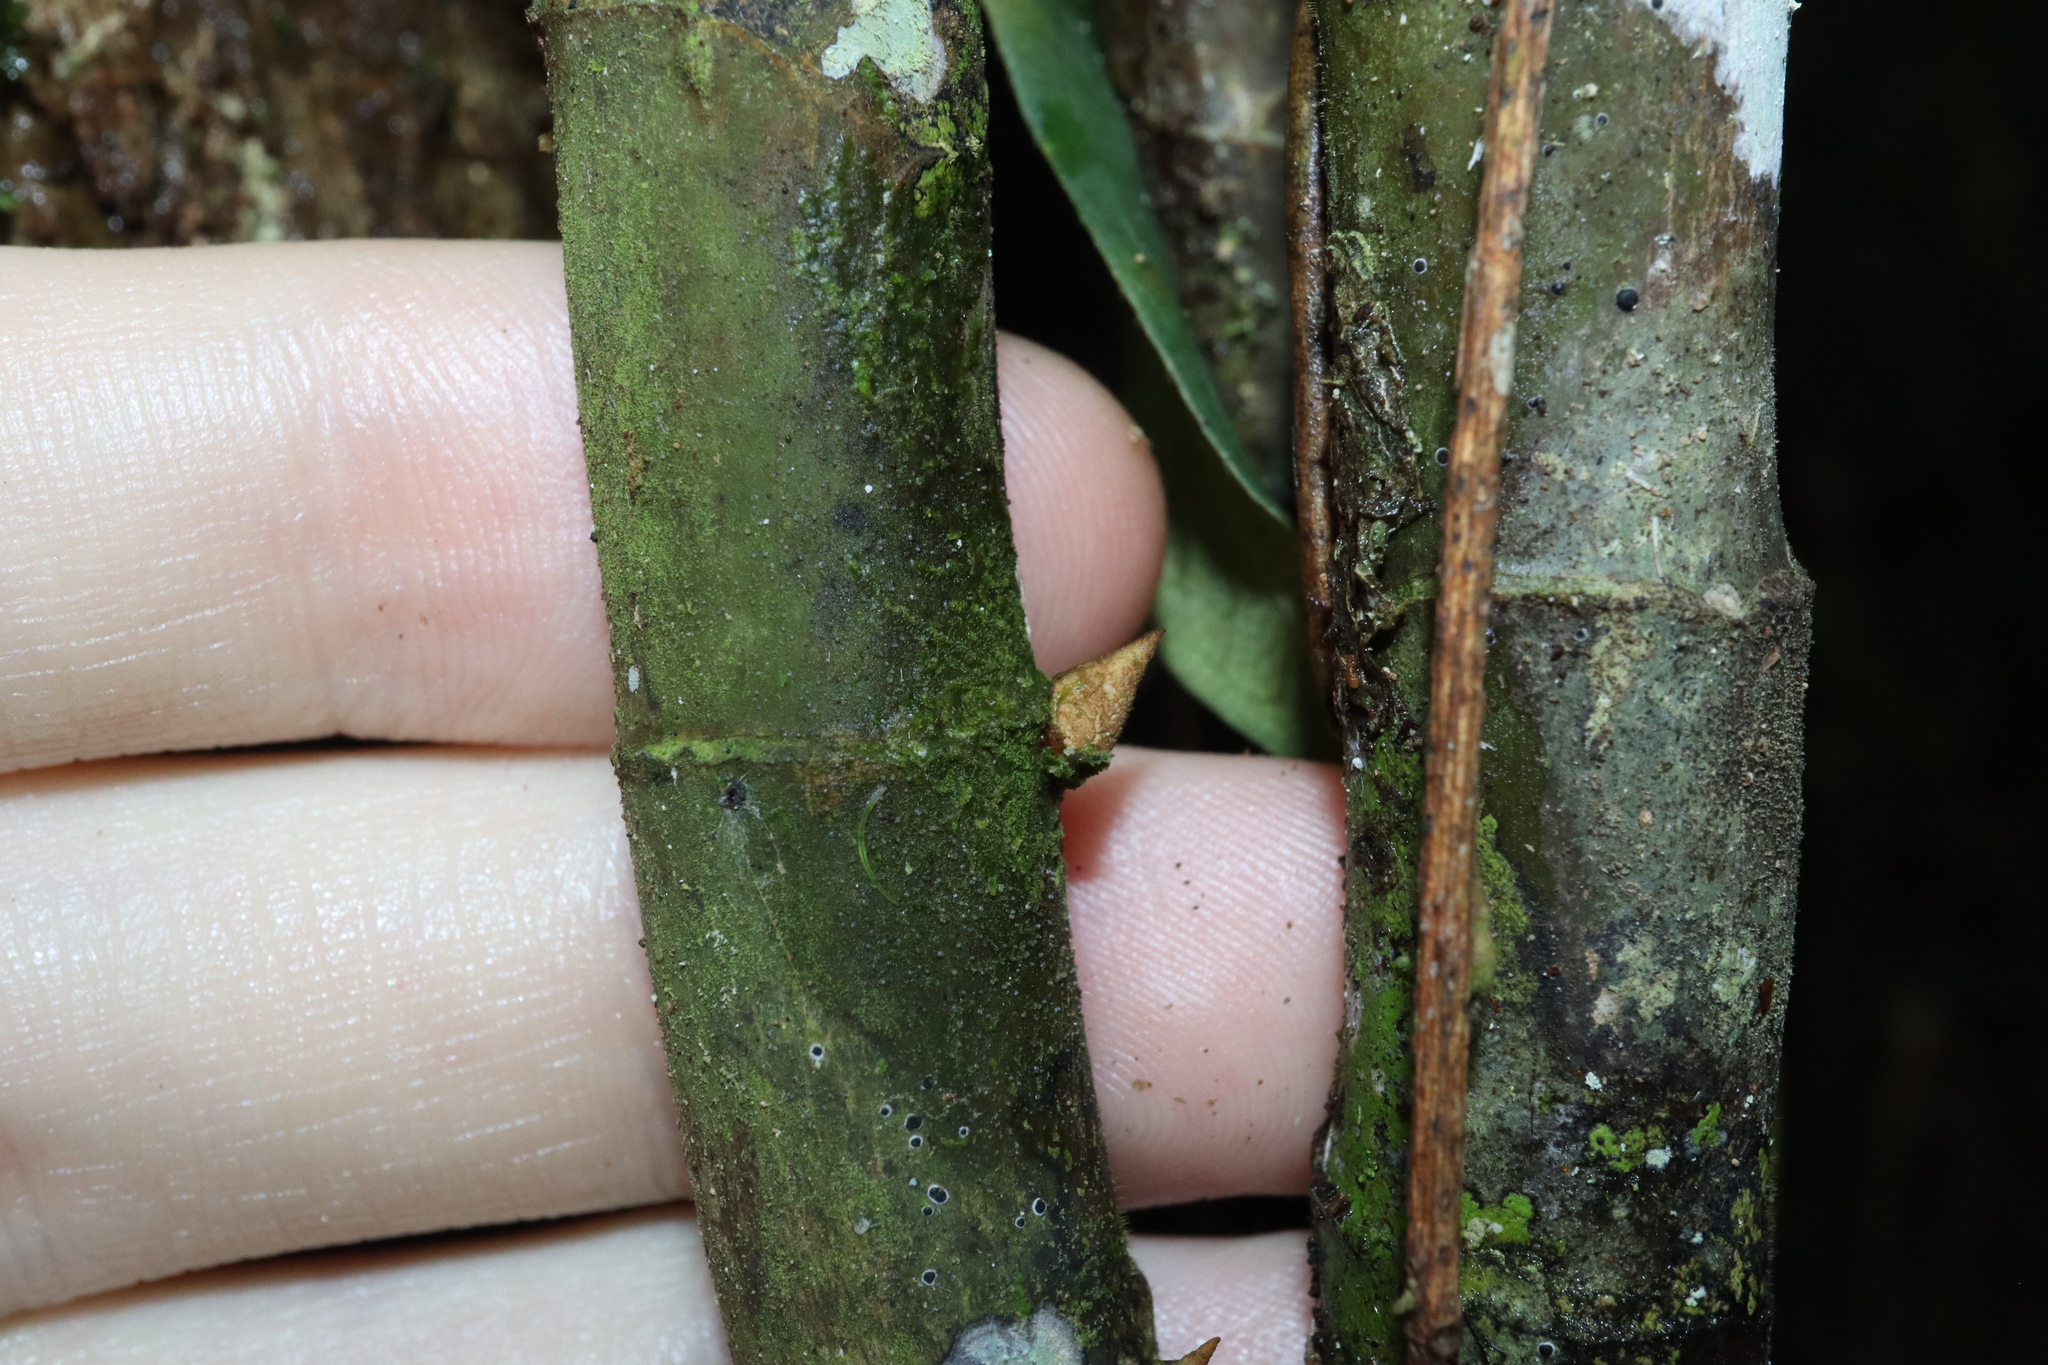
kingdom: Plantae
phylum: Tracheophyta
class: Magnoliopsida
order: Rosales
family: Moraceae
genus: Ficus
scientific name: Ficus pantoniana
